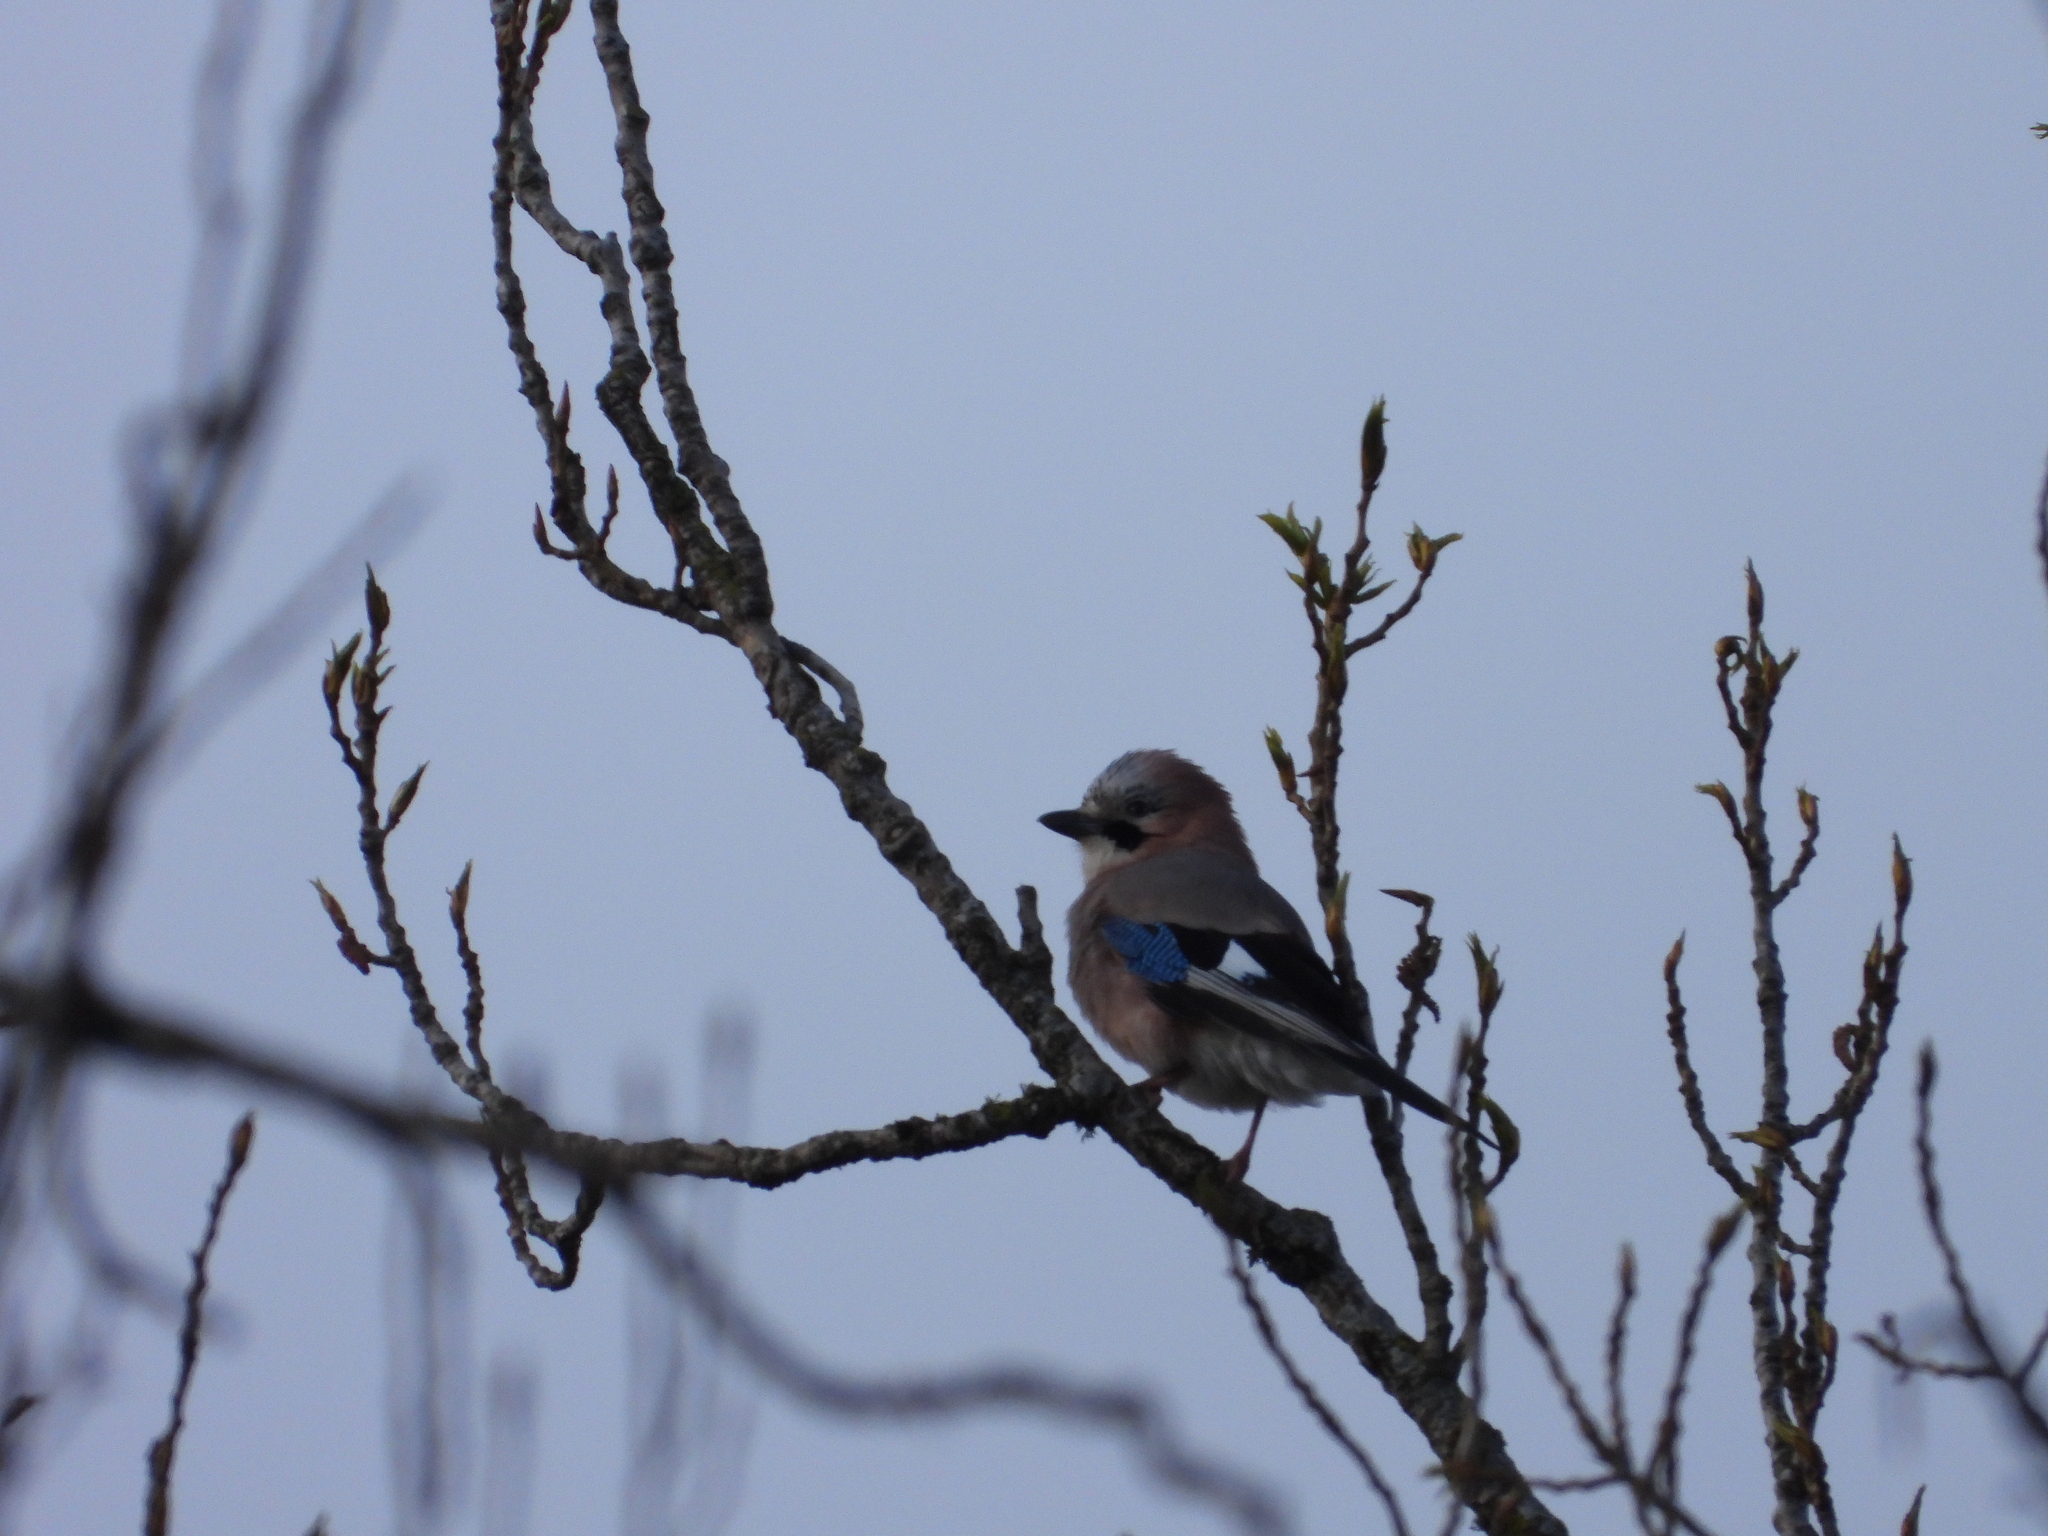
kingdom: Animalia
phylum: Chordata
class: Aves
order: Passeriformes
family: Corvidae
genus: Garrulus
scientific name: Garrulus glandarius
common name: Eurasian jay
